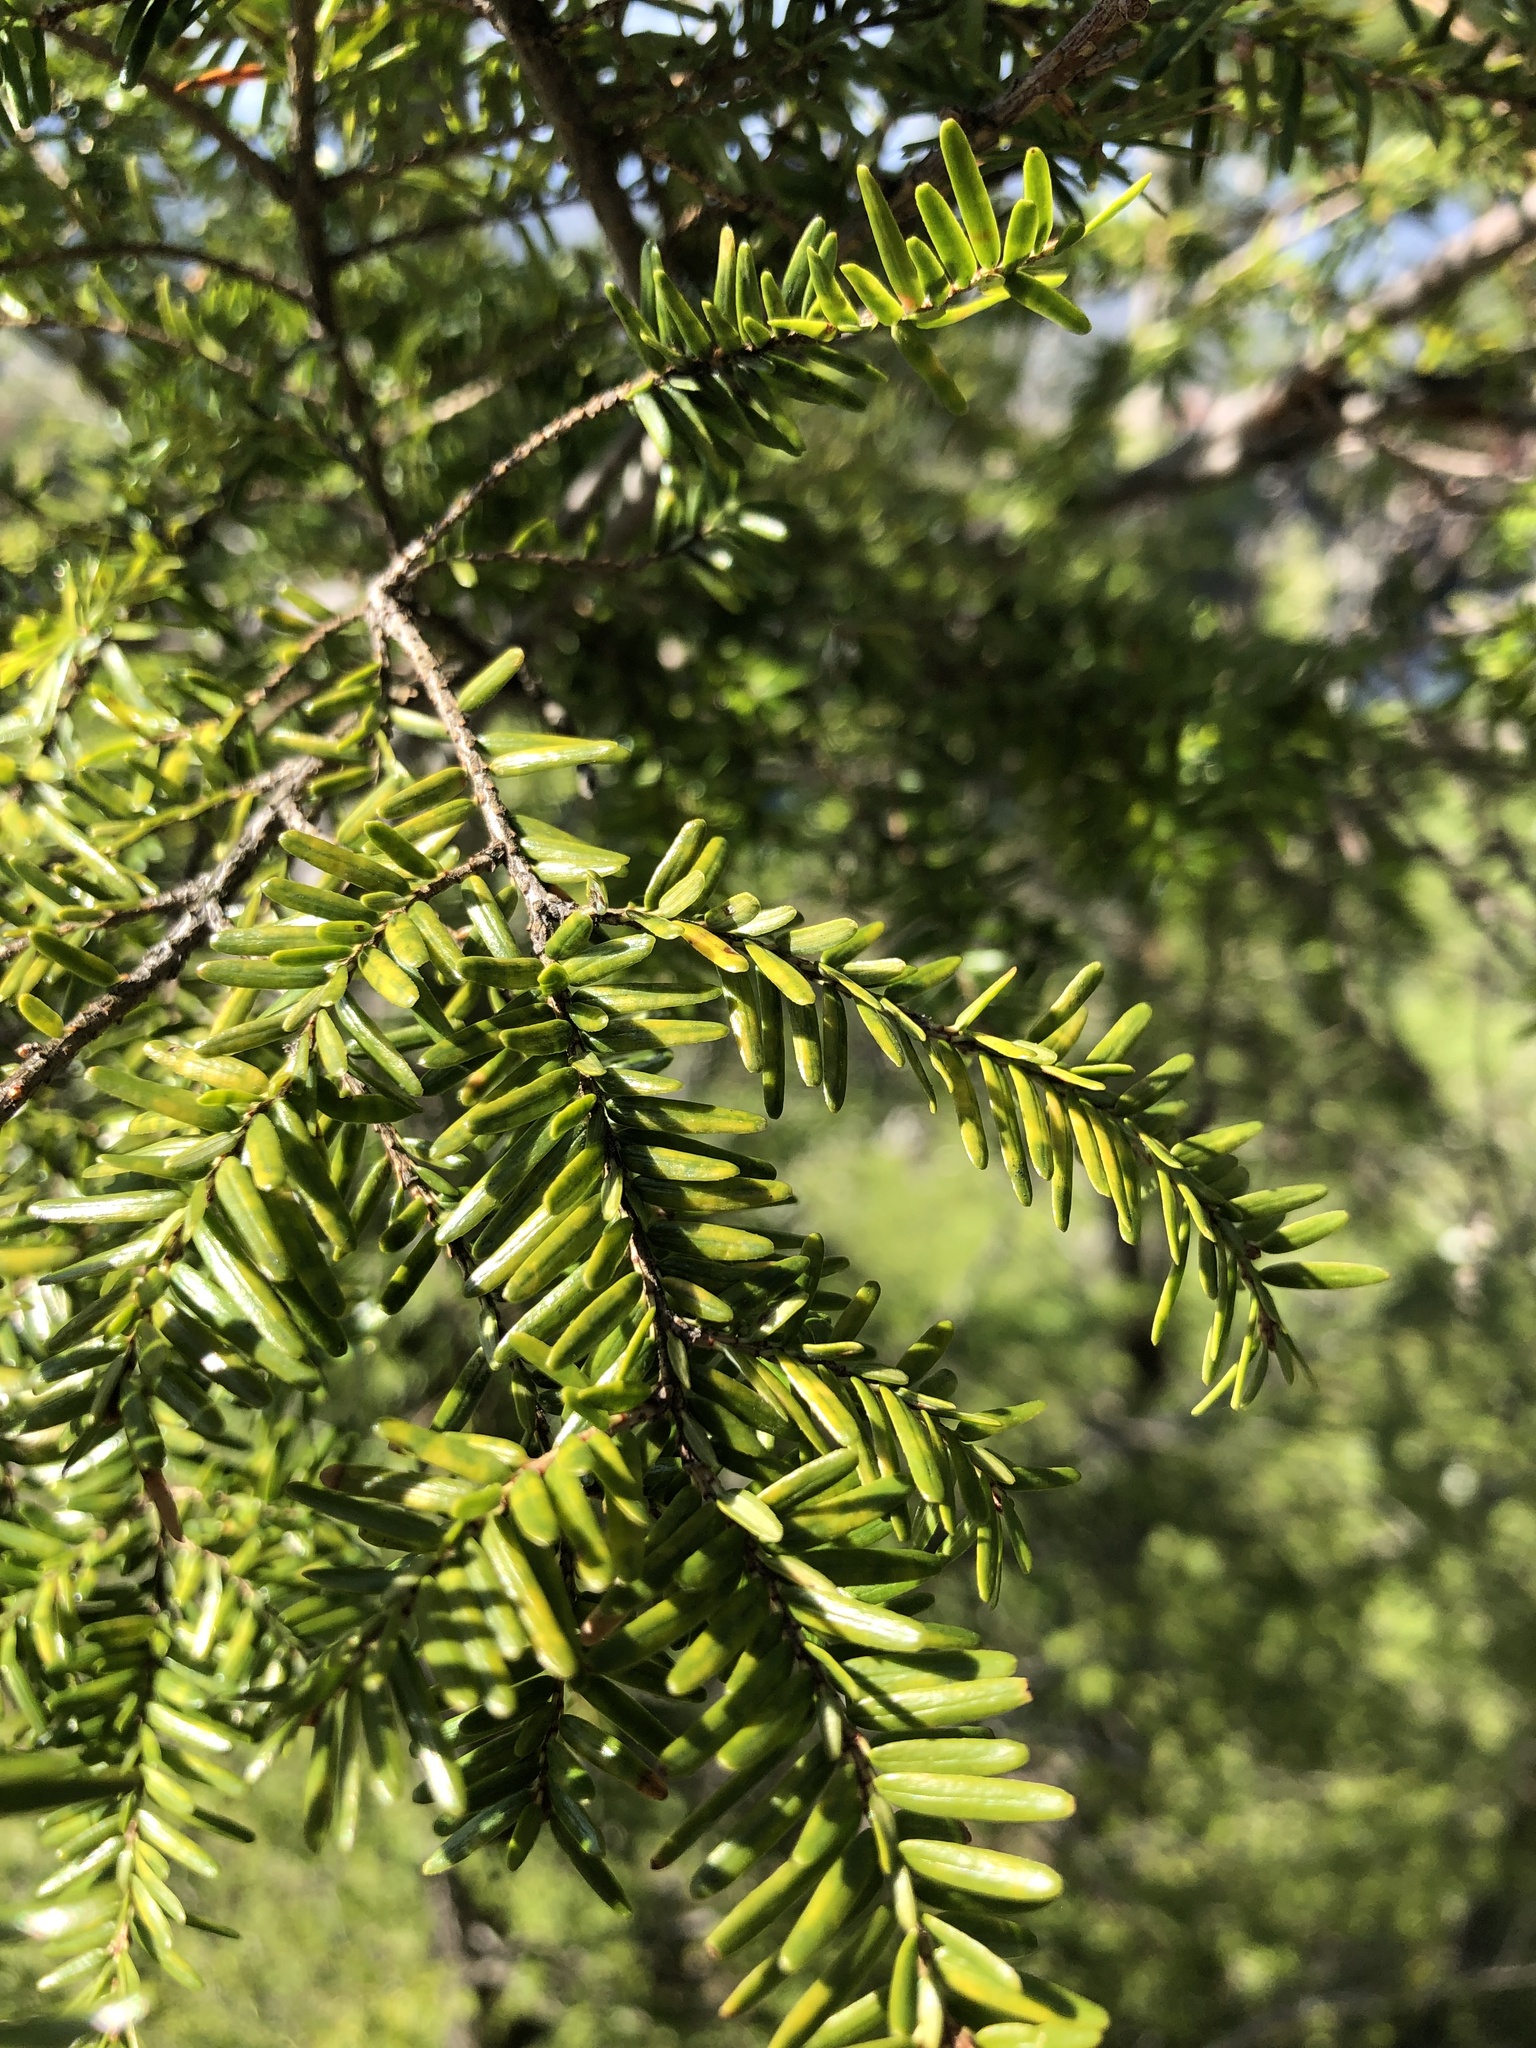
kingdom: Plantae
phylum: Tracheophyta
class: Pinopsida
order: Pinales
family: Pinaceae
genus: Tsuga
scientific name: Tsuga canadensis
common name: Eastern hemlock
